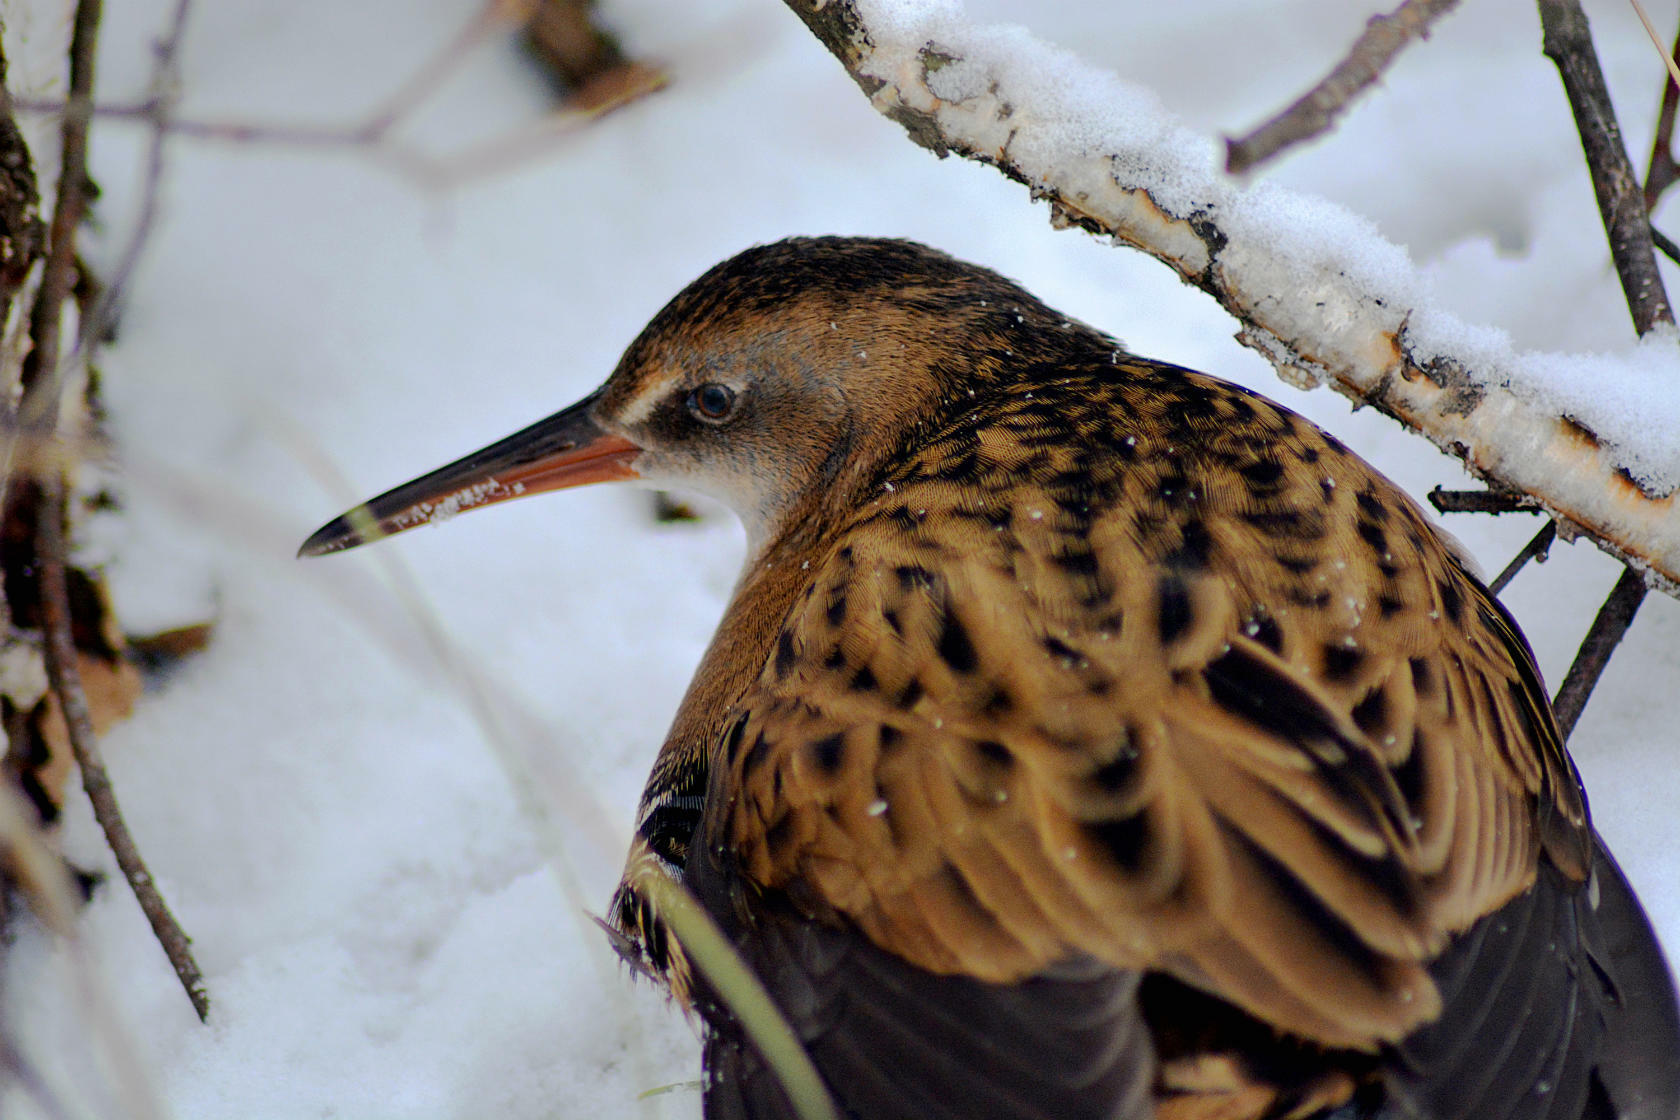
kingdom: Animalia
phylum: Chordata
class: Aves
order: Gruiformes
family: Rallidae
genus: Rallus
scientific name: Rallus aquaticus
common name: Water rail
